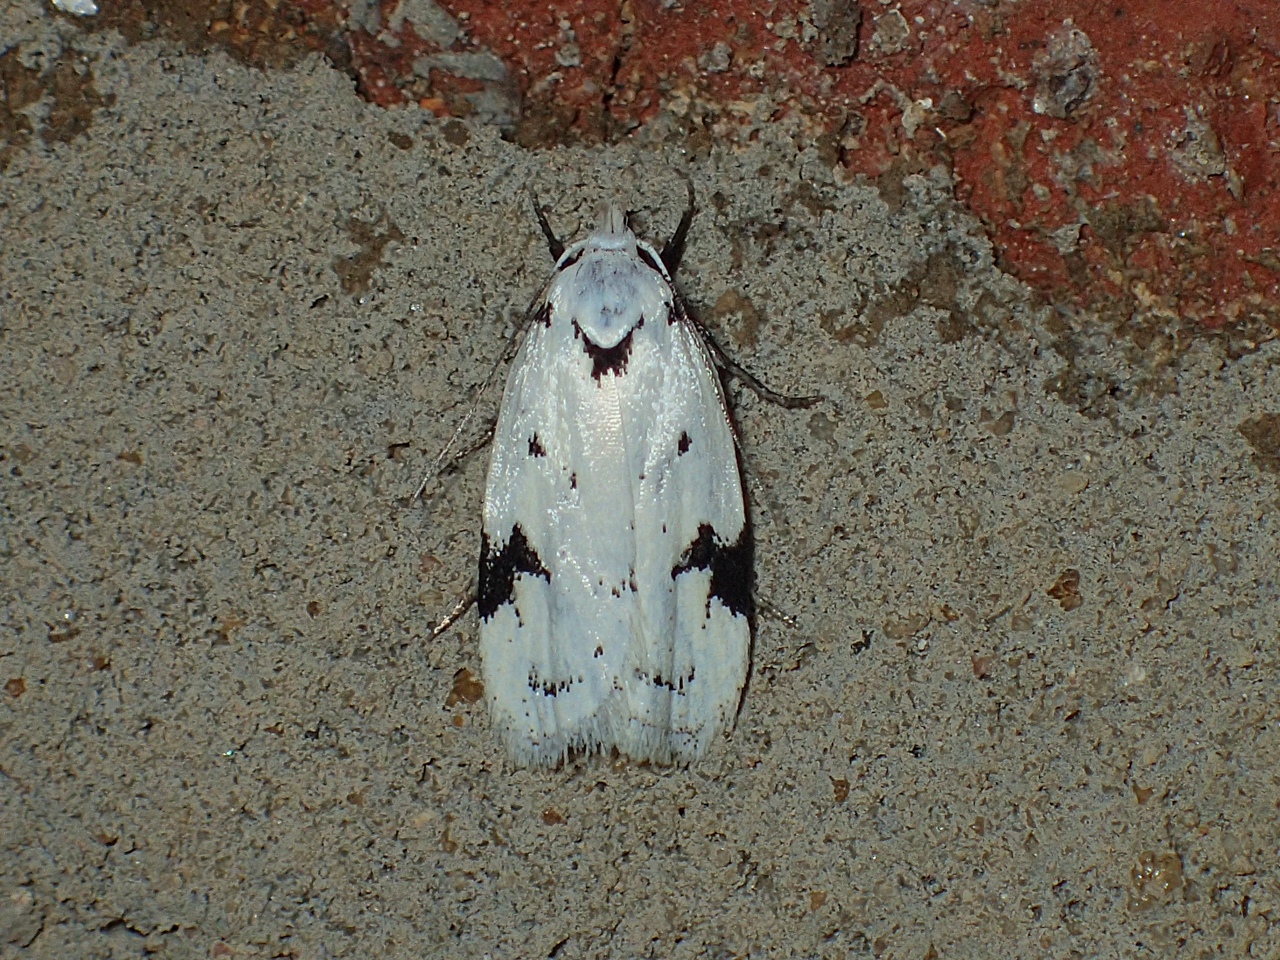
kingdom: Animalia
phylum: Arthropoda
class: Insecta
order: Lepidoptera
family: Oecophoridae
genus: Inga
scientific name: Inga sparsiciliella
